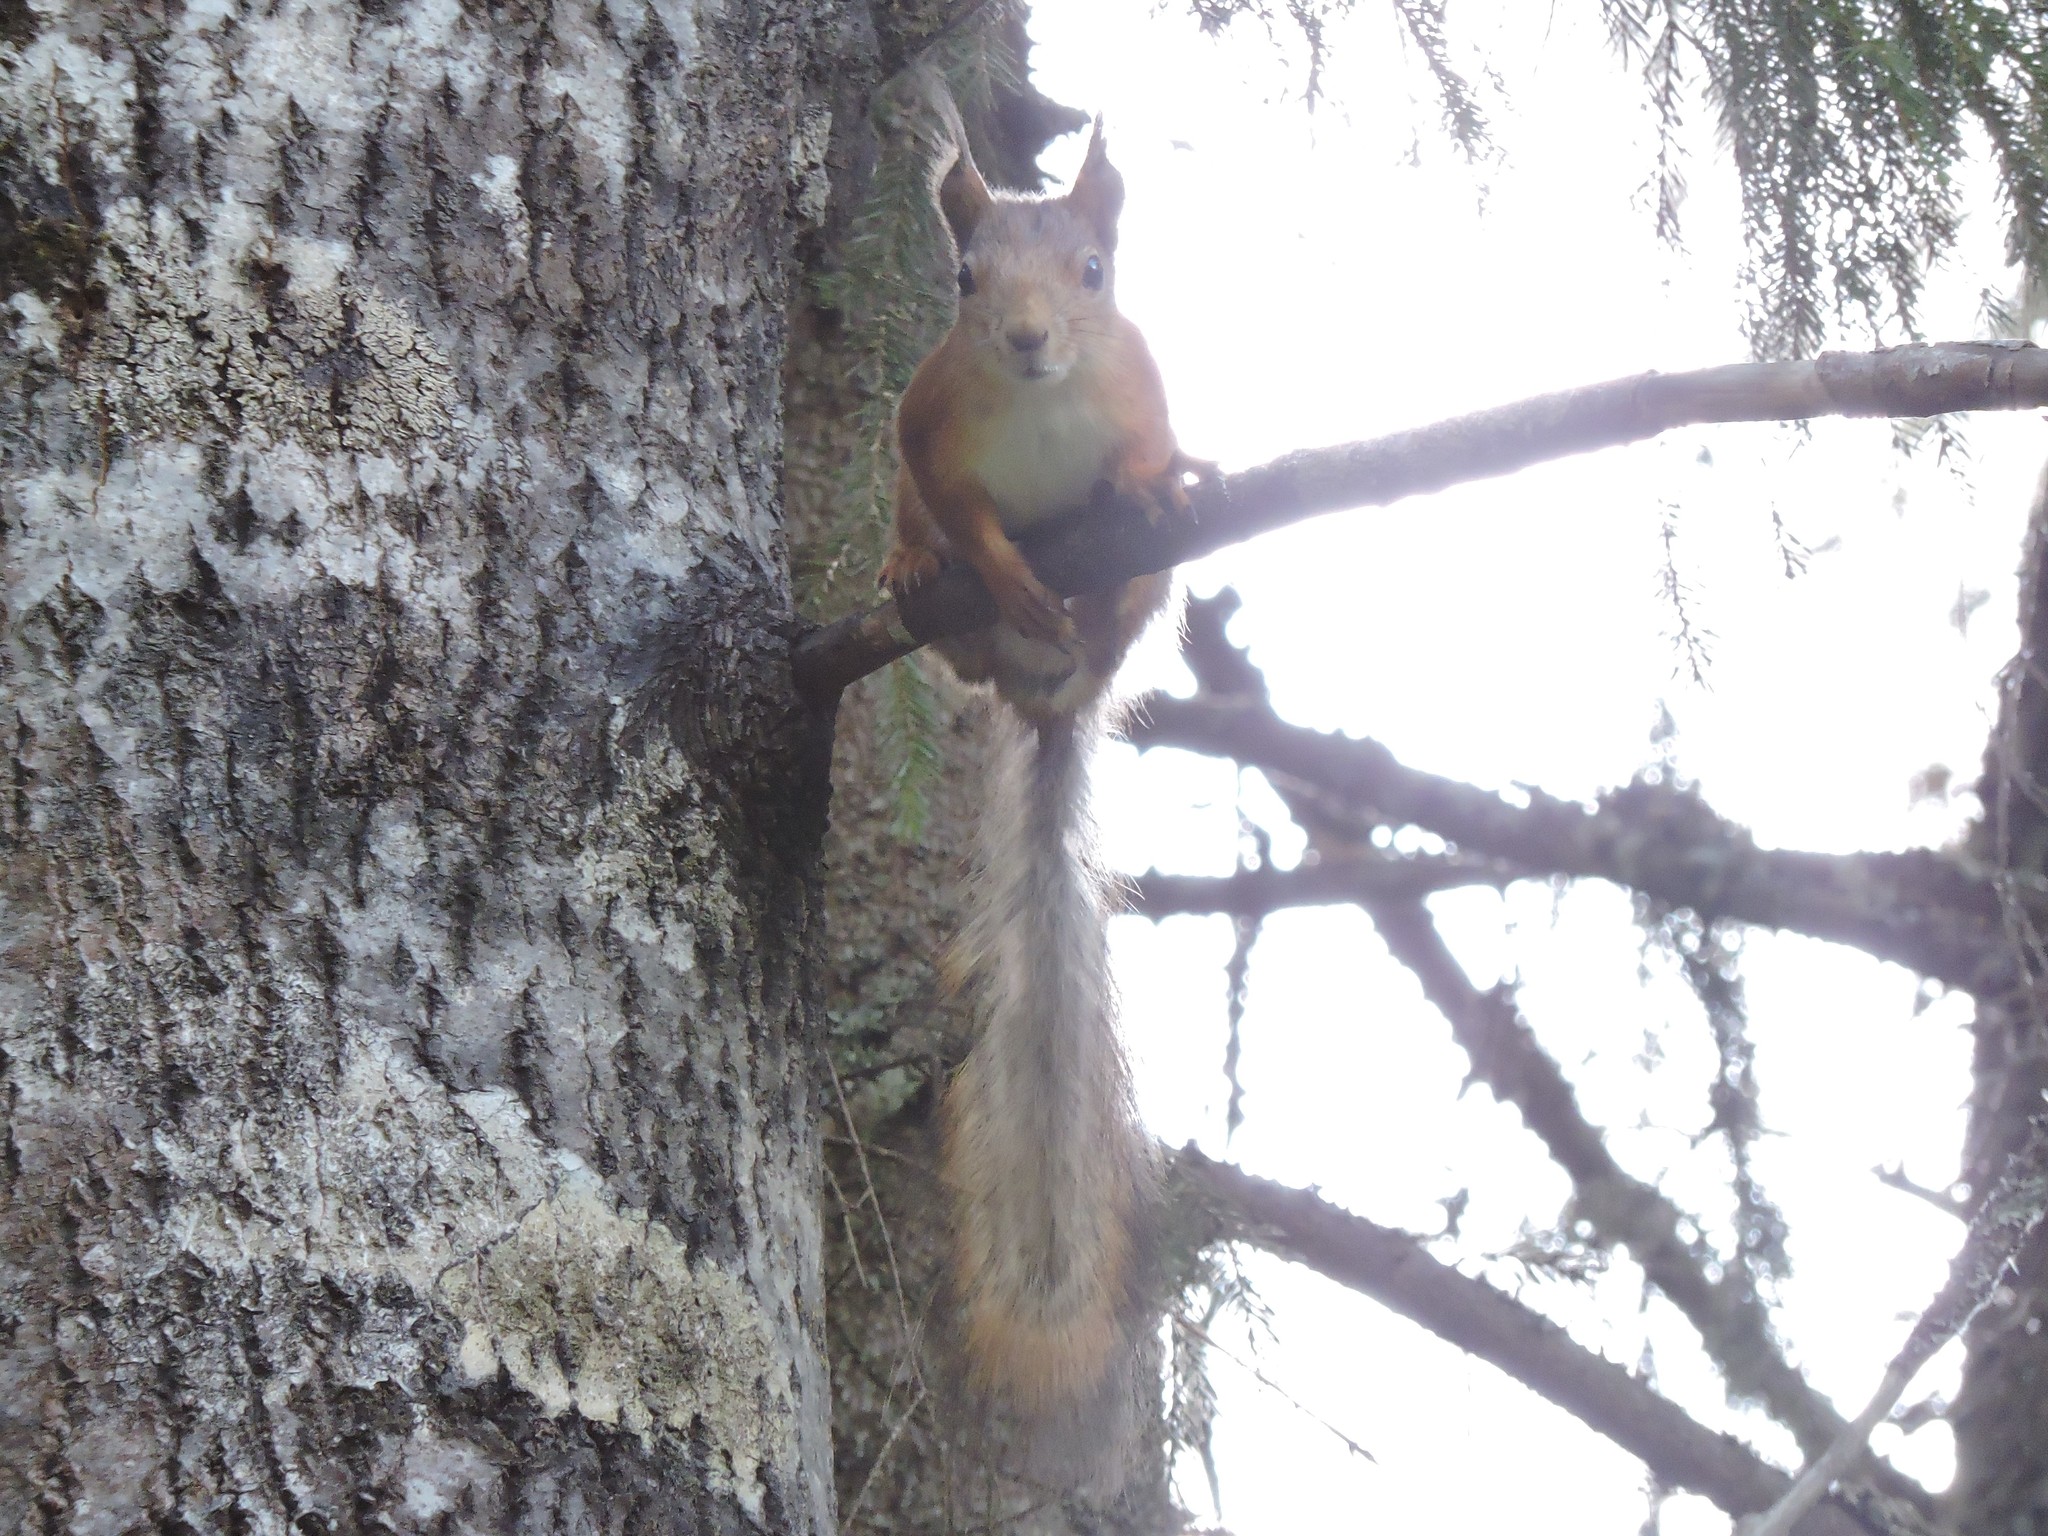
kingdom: Animalia
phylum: Chordata
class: Mammalia
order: Rodentia
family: Sciuridae
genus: Sciurus
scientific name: Sciurus vulgaris
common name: Eurasian red squirrel
